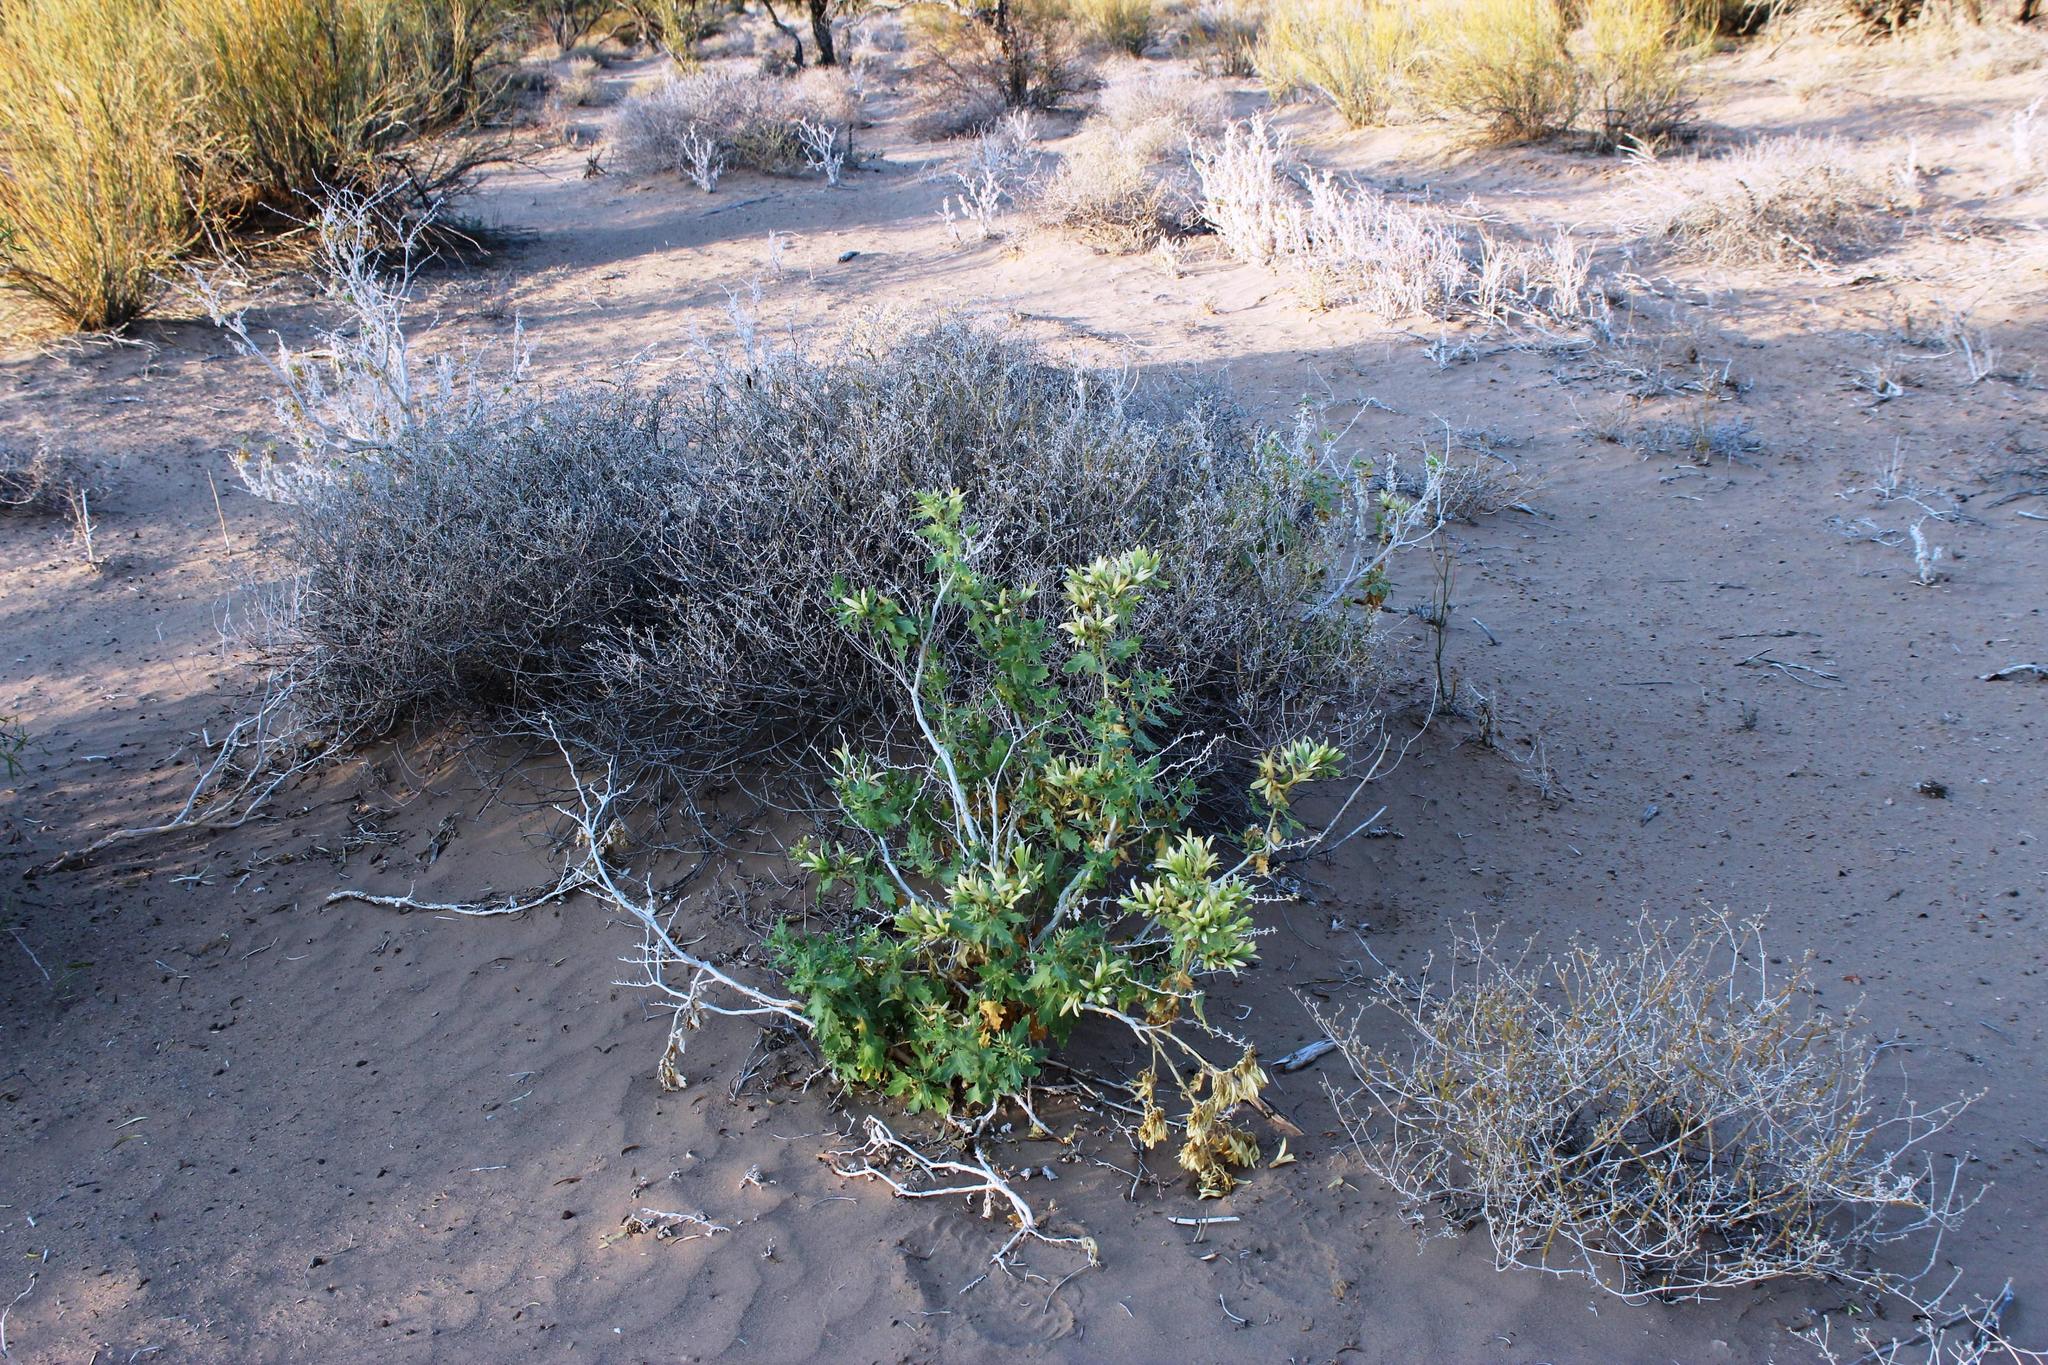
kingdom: Plantae
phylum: Tracheophyta
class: Magnoliopsida
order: Cornales
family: Loasaceae
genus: Kissenia
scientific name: Kissenia capensis
